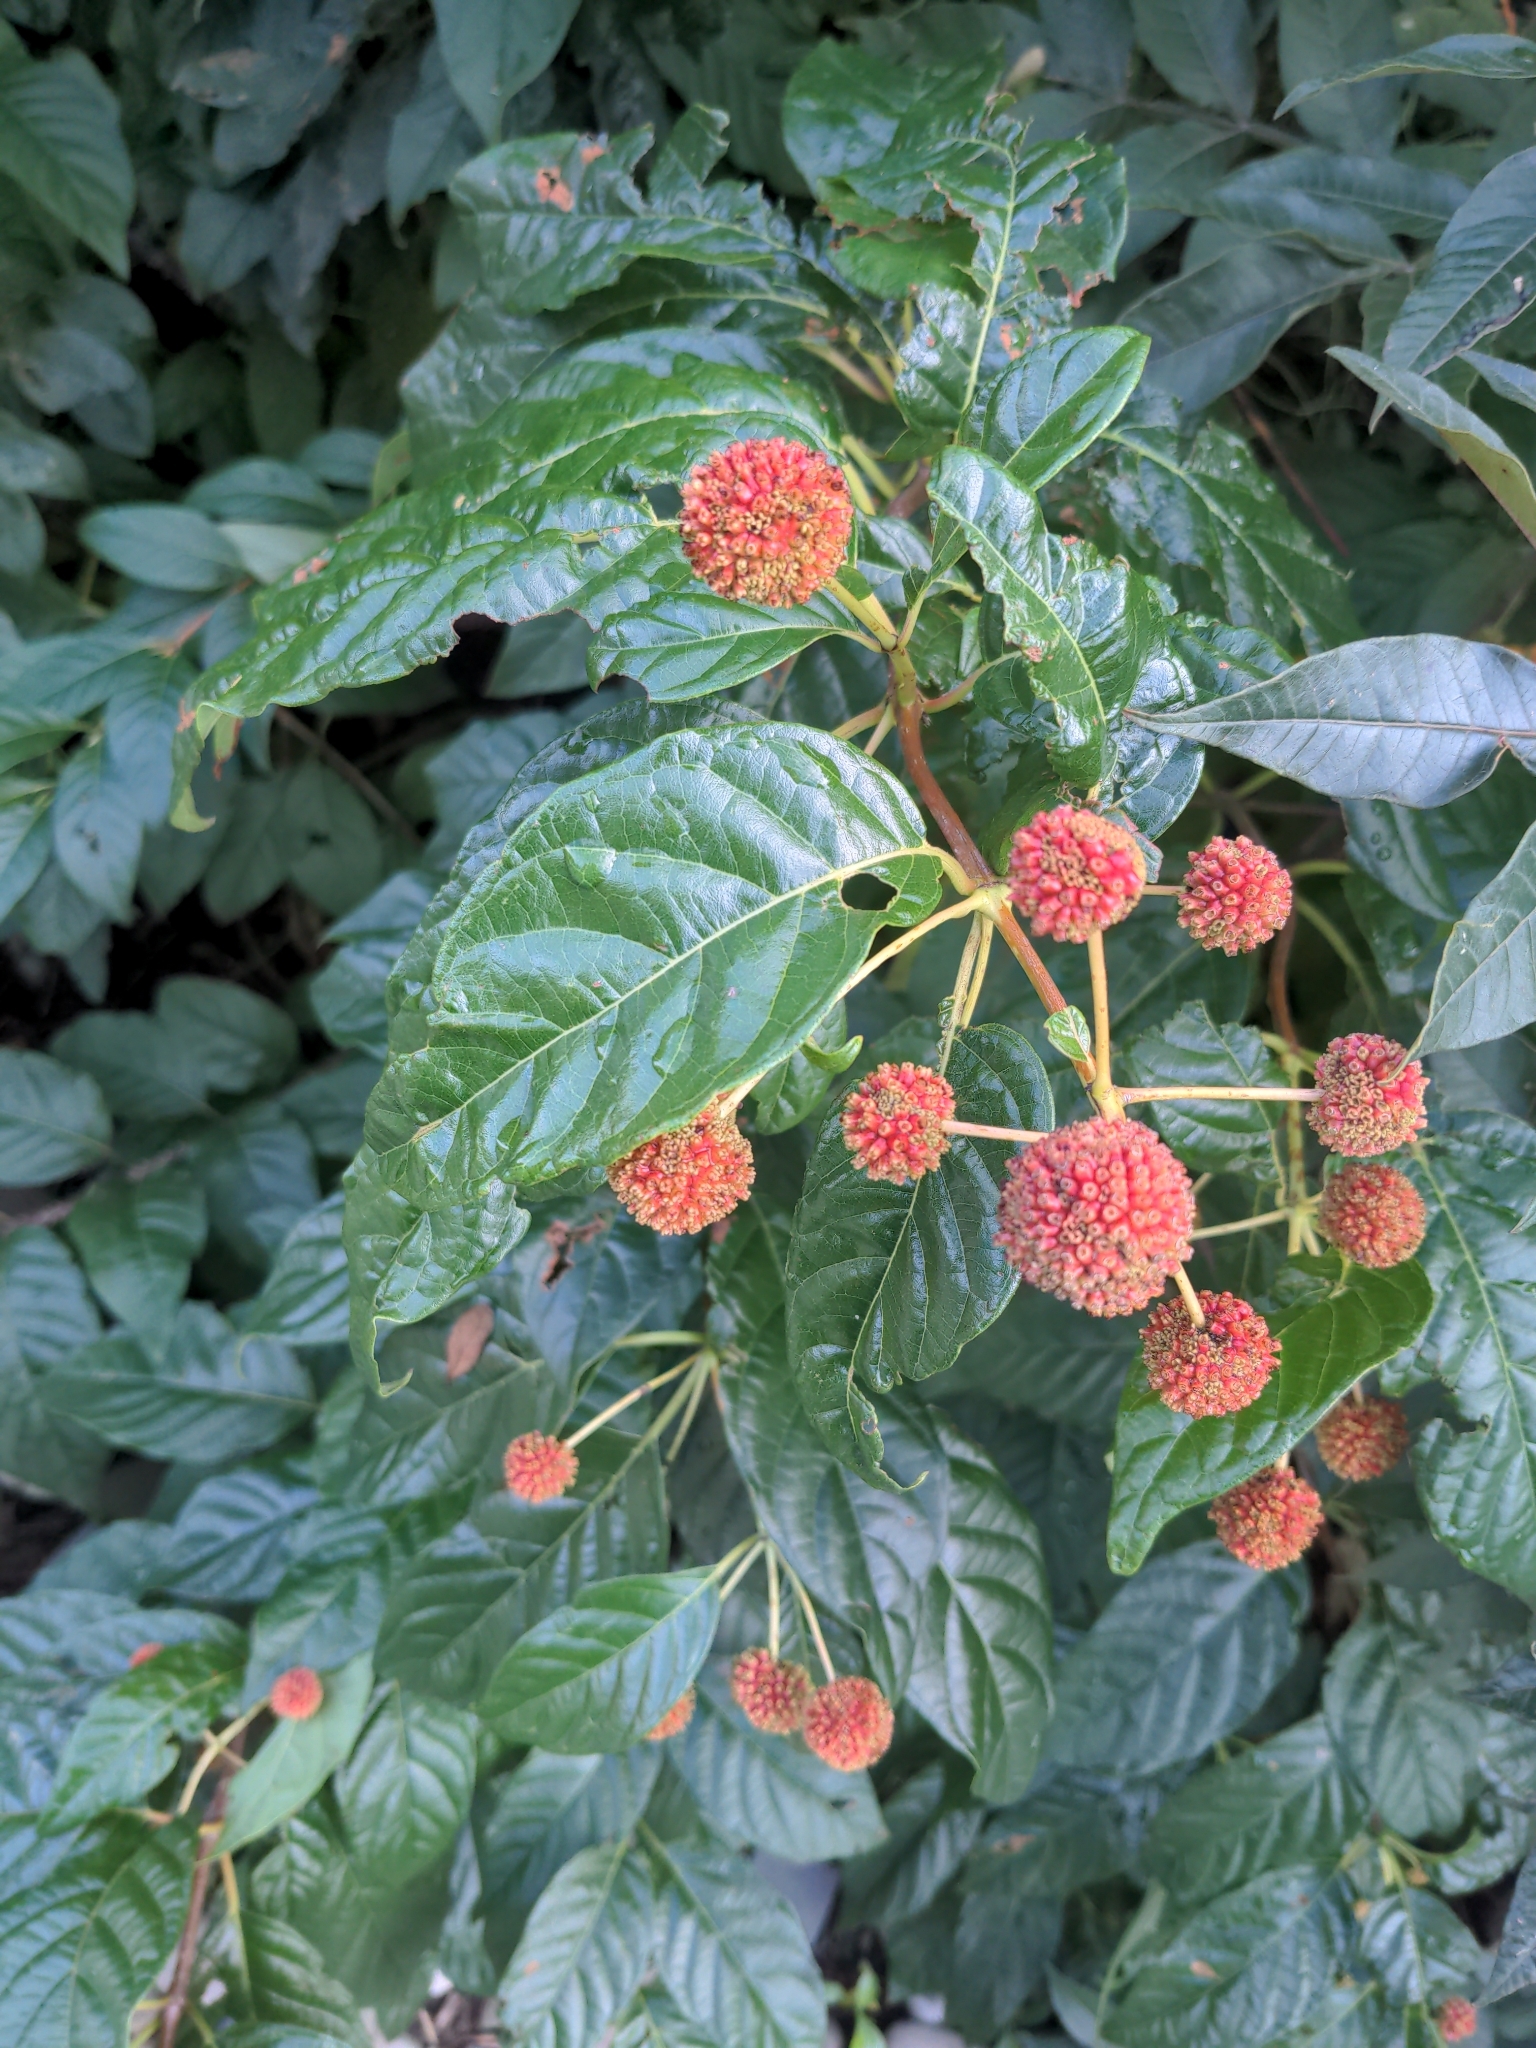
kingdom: Plantae
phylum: Tracheophyta
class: Magnoliopsida
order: Gentianales
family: Rubiaceae
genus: Cephalanthus
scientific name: Cephalanthus occidentalis
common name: Button-willow
